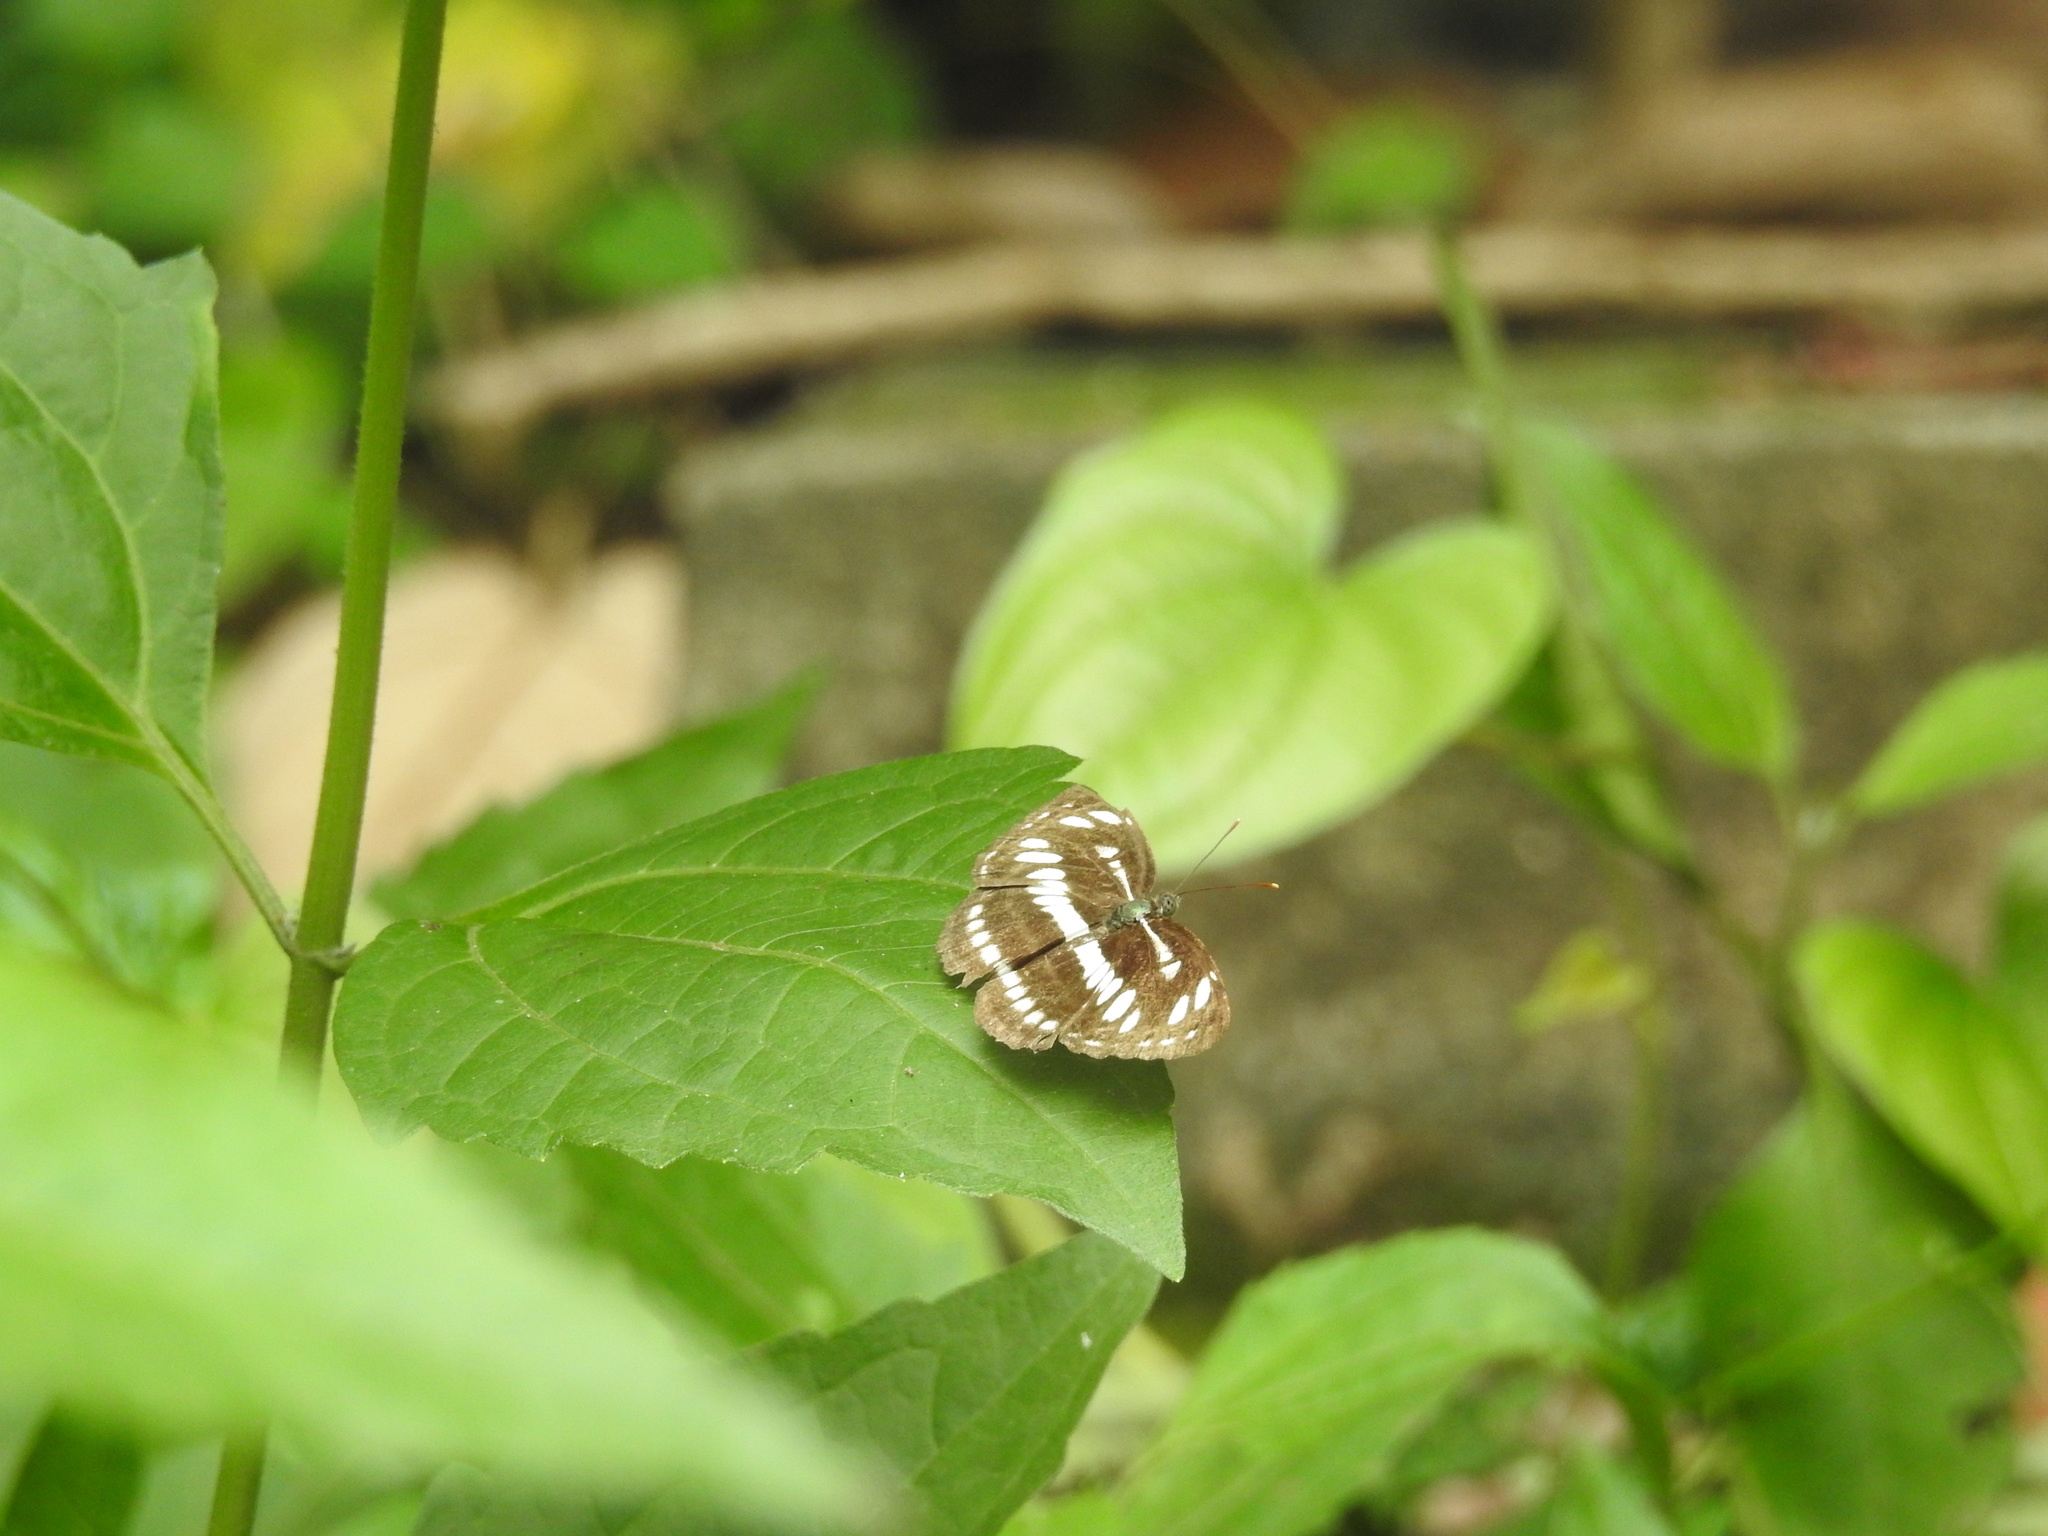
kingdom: Animalia
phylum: Arthropoda
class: Insecta
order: Lepidoptera
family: Nymphalidae
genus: Neptis
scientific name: Neptis hylas
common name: Common sailer
